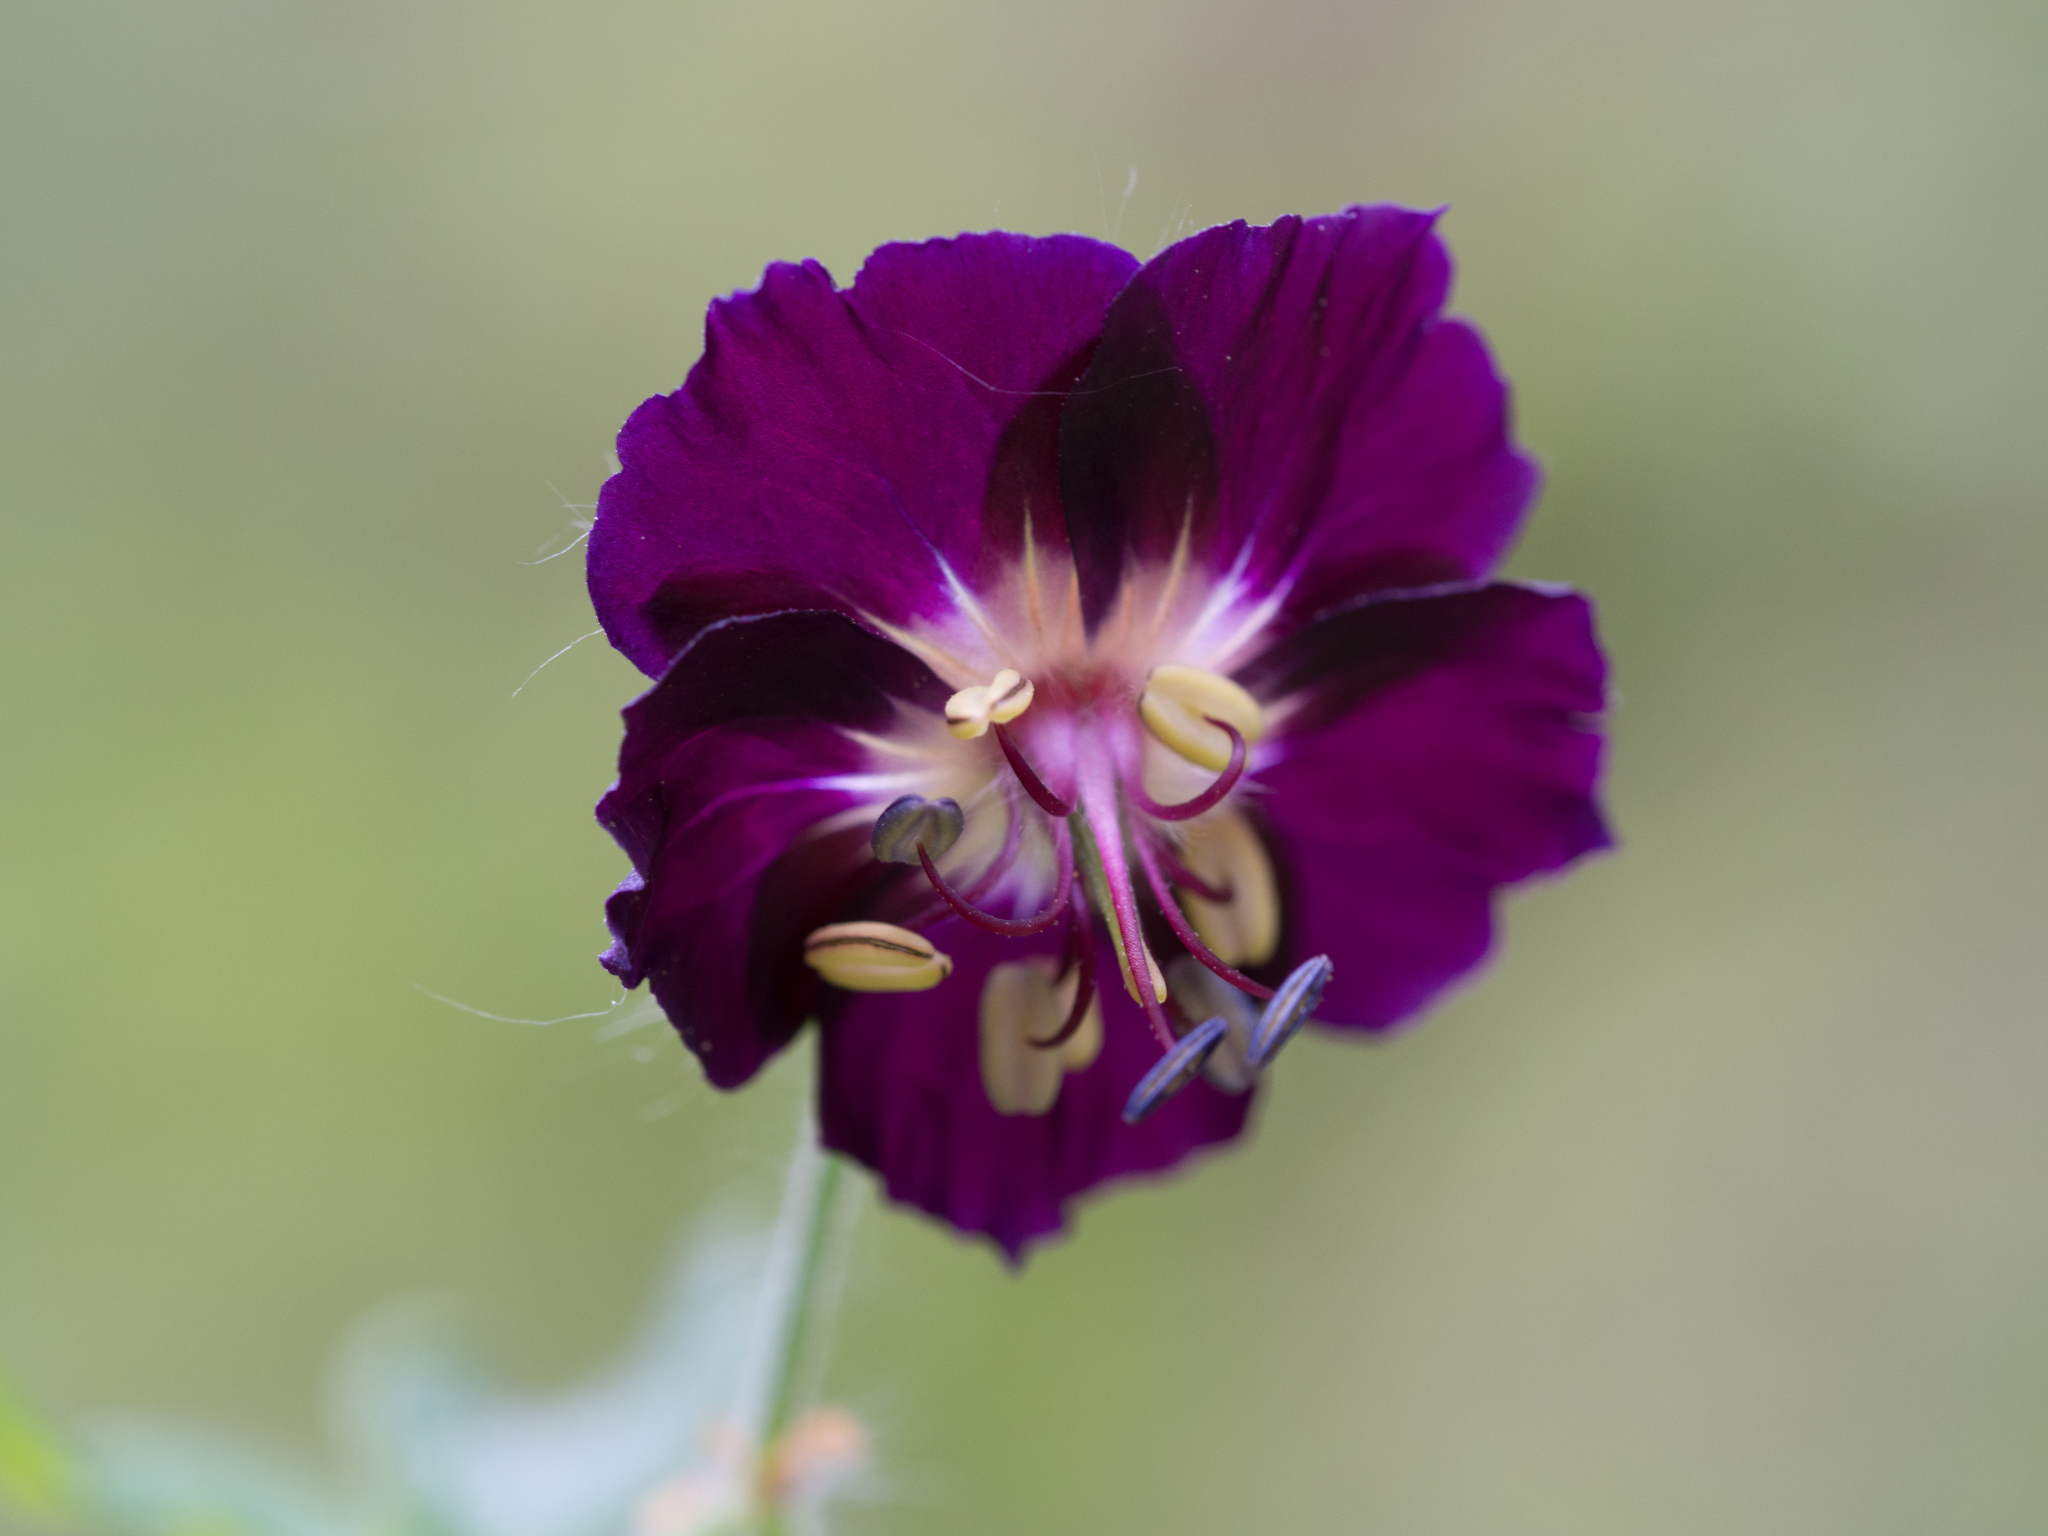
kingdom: Plantae
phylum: Tracheophyta
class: Magnoliopsida
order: Geraniales
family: Geraniaceae
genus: Geranium
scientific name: Geranium phaeum
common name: Dusky crane's-bill
